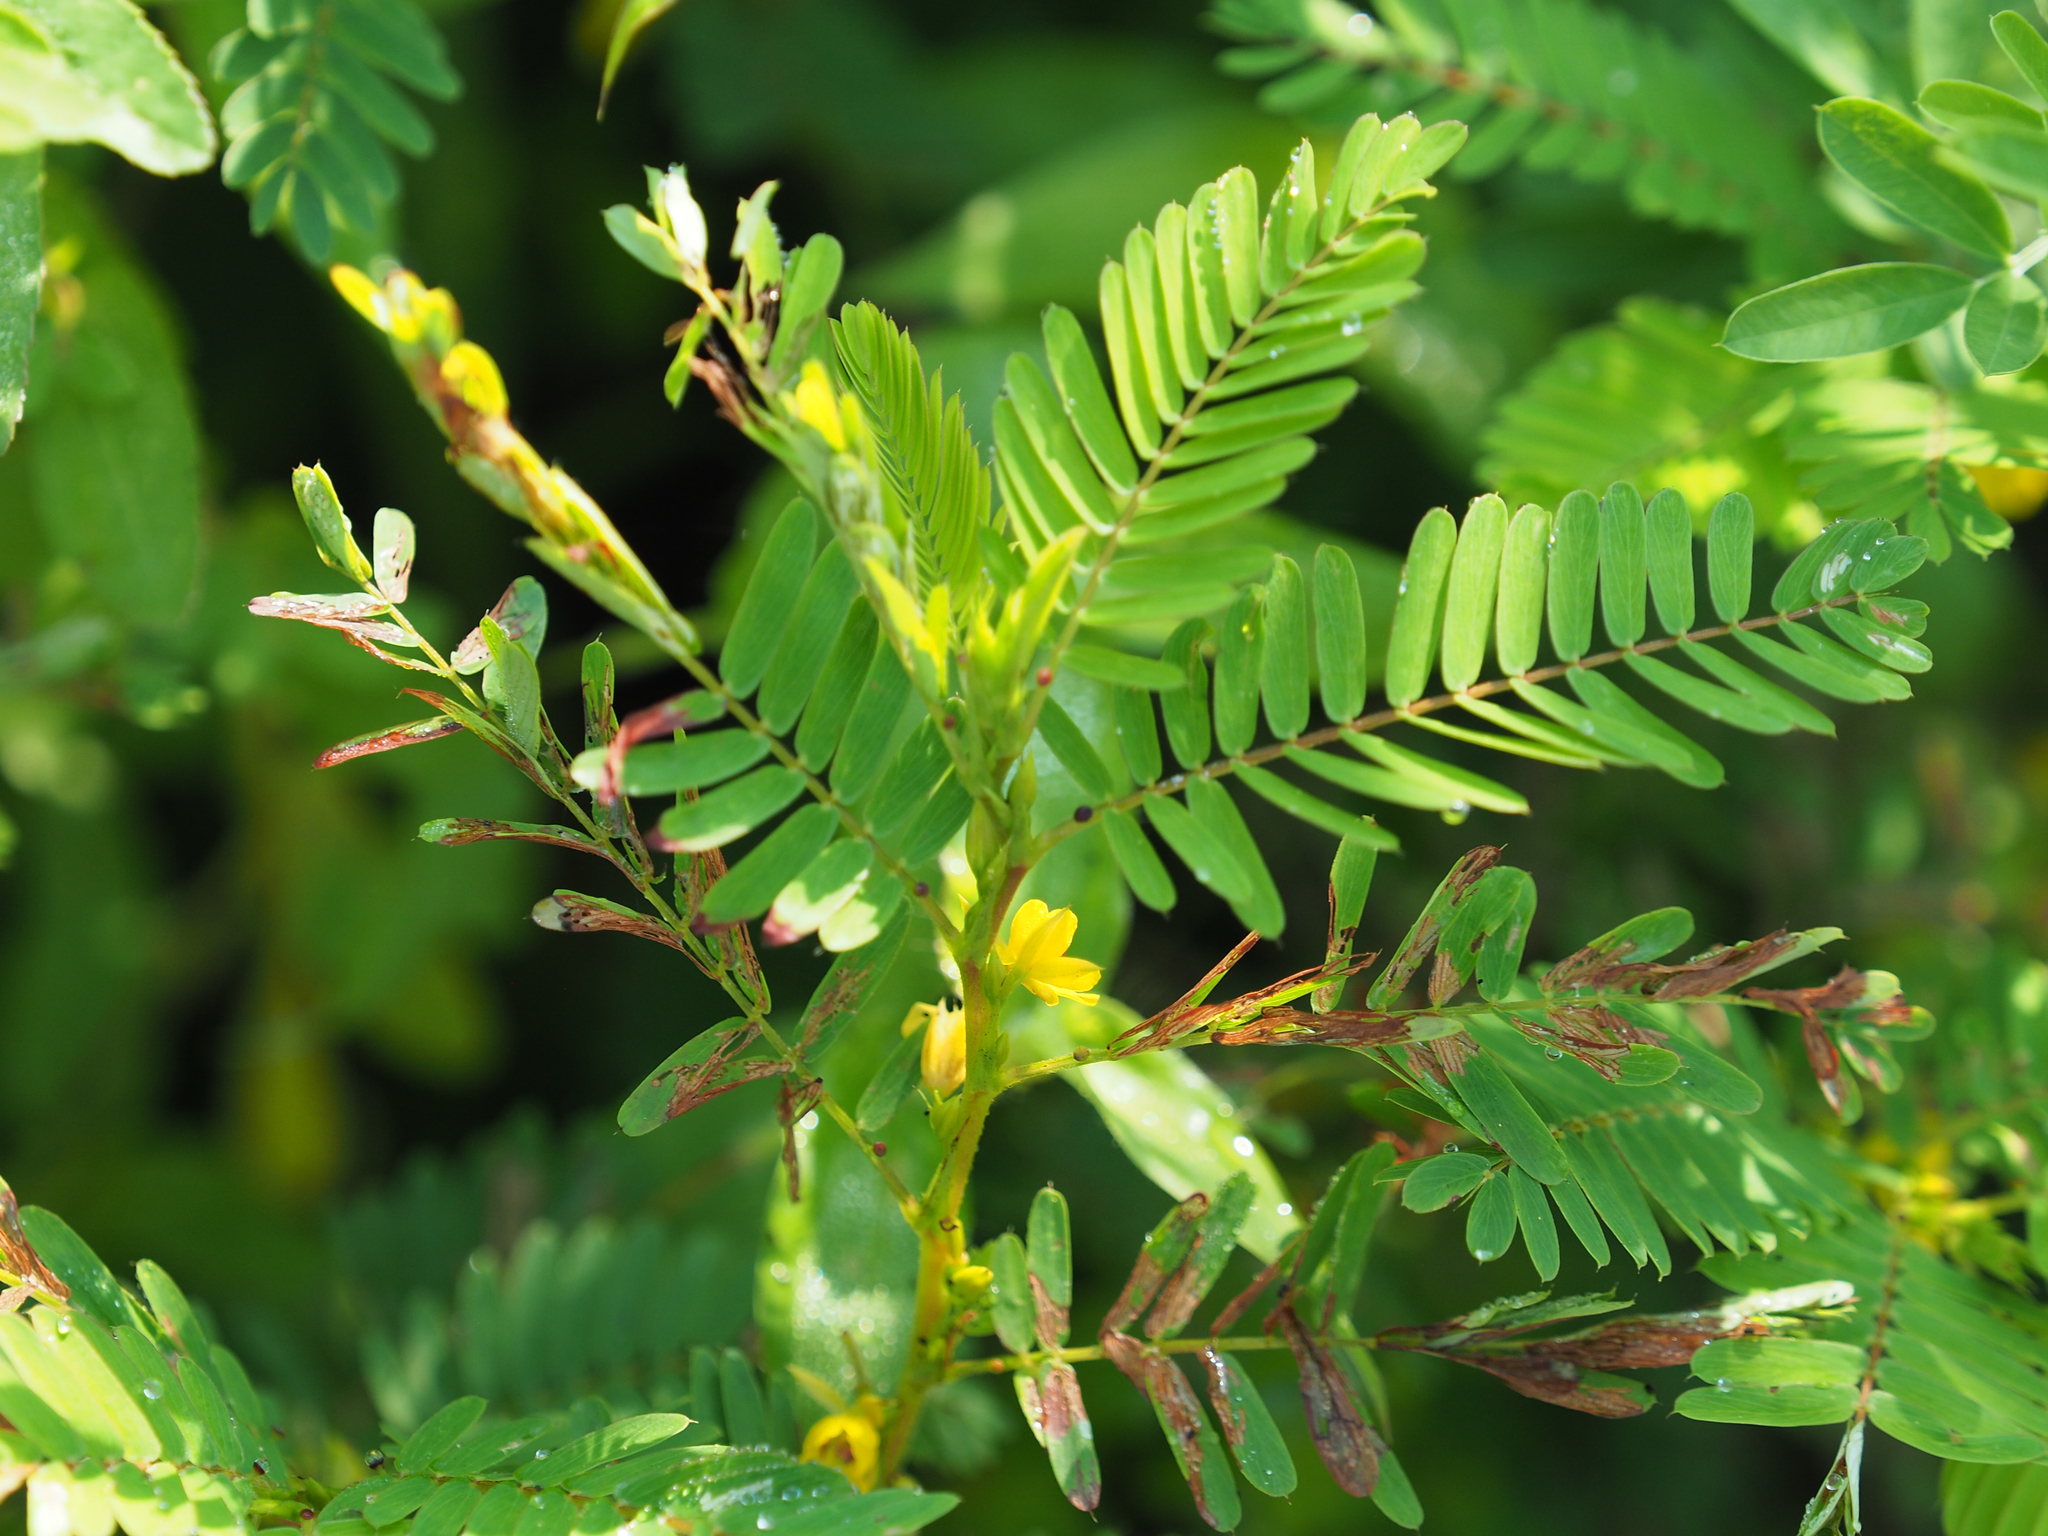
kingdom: Plantae
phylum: Tracheophyta
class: Magnoliopsida
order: Fabales
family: Fabaceae
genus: Chamaecrista
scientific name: Chamaecrista nictitans
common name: Sensitive cassia
